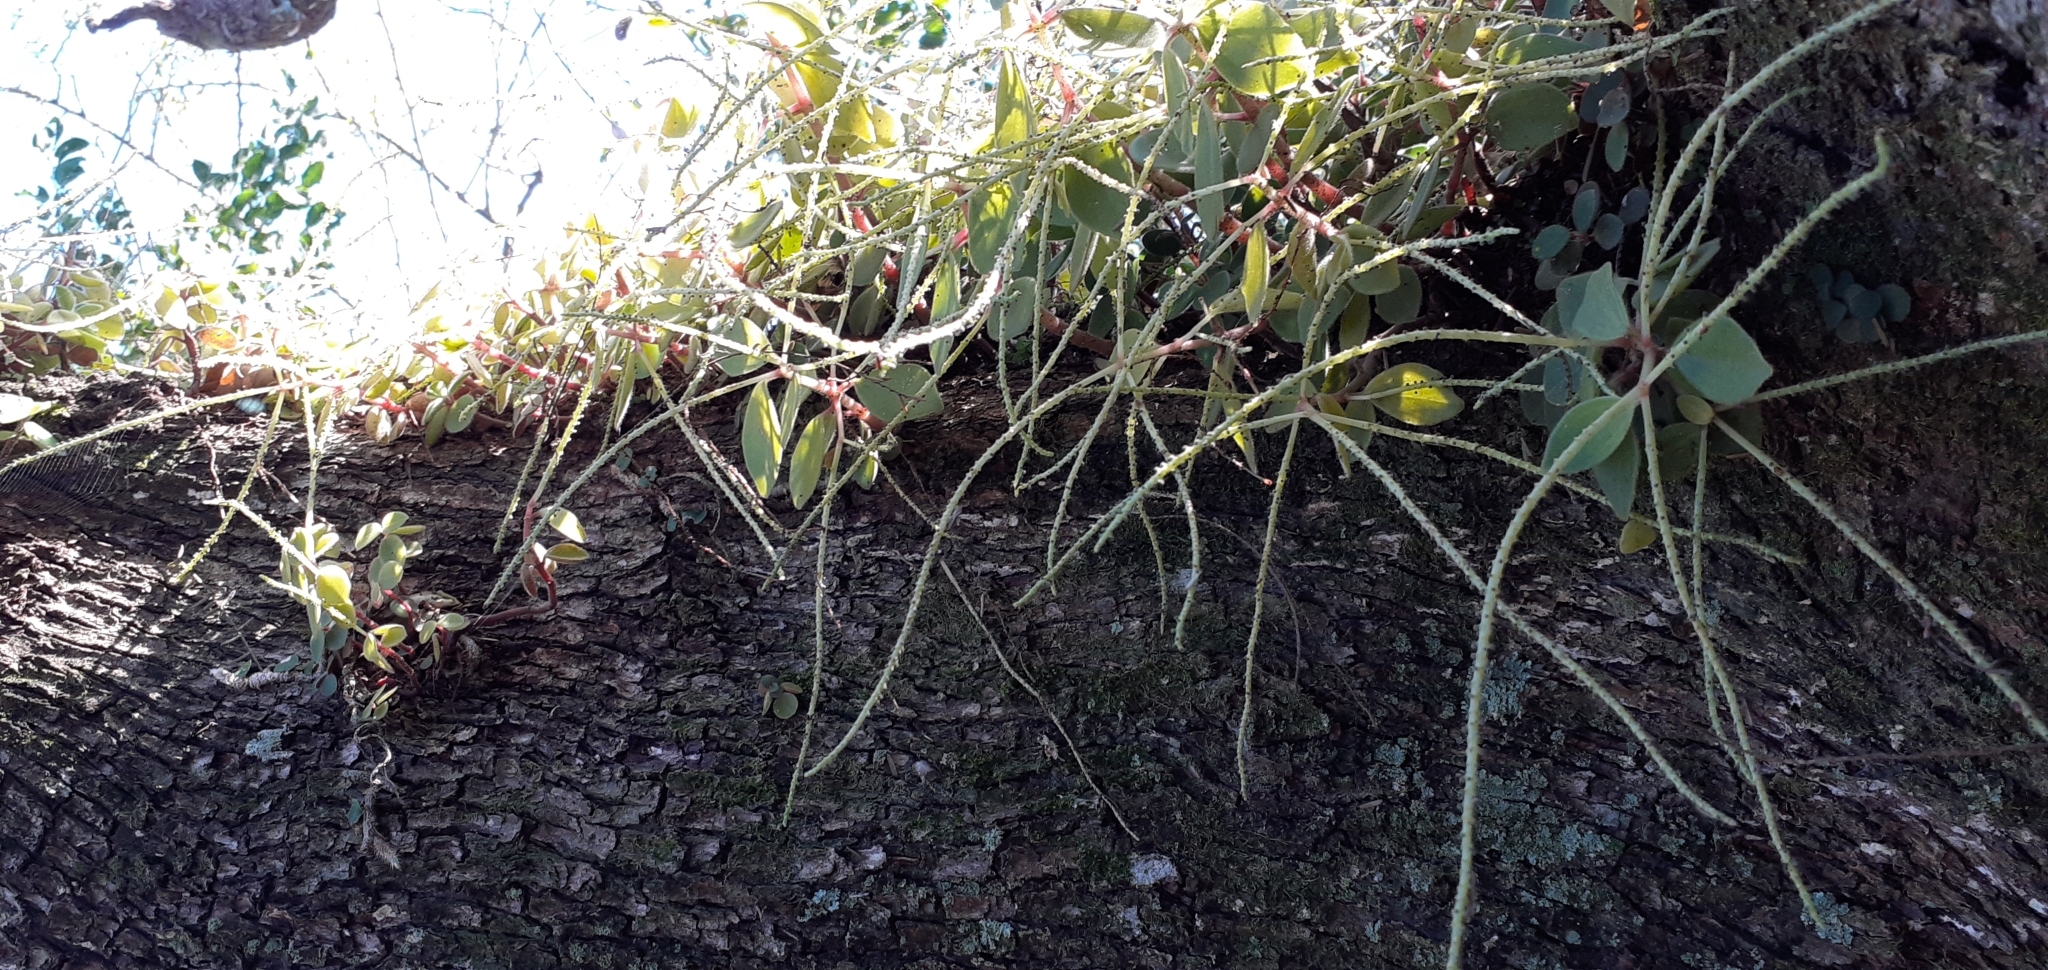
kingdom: Plantae
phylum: Tracheophyta
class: Magnoliopsida
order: Piperales
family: Piperaceae
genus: Peperomia
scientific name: Peperomia increscens
